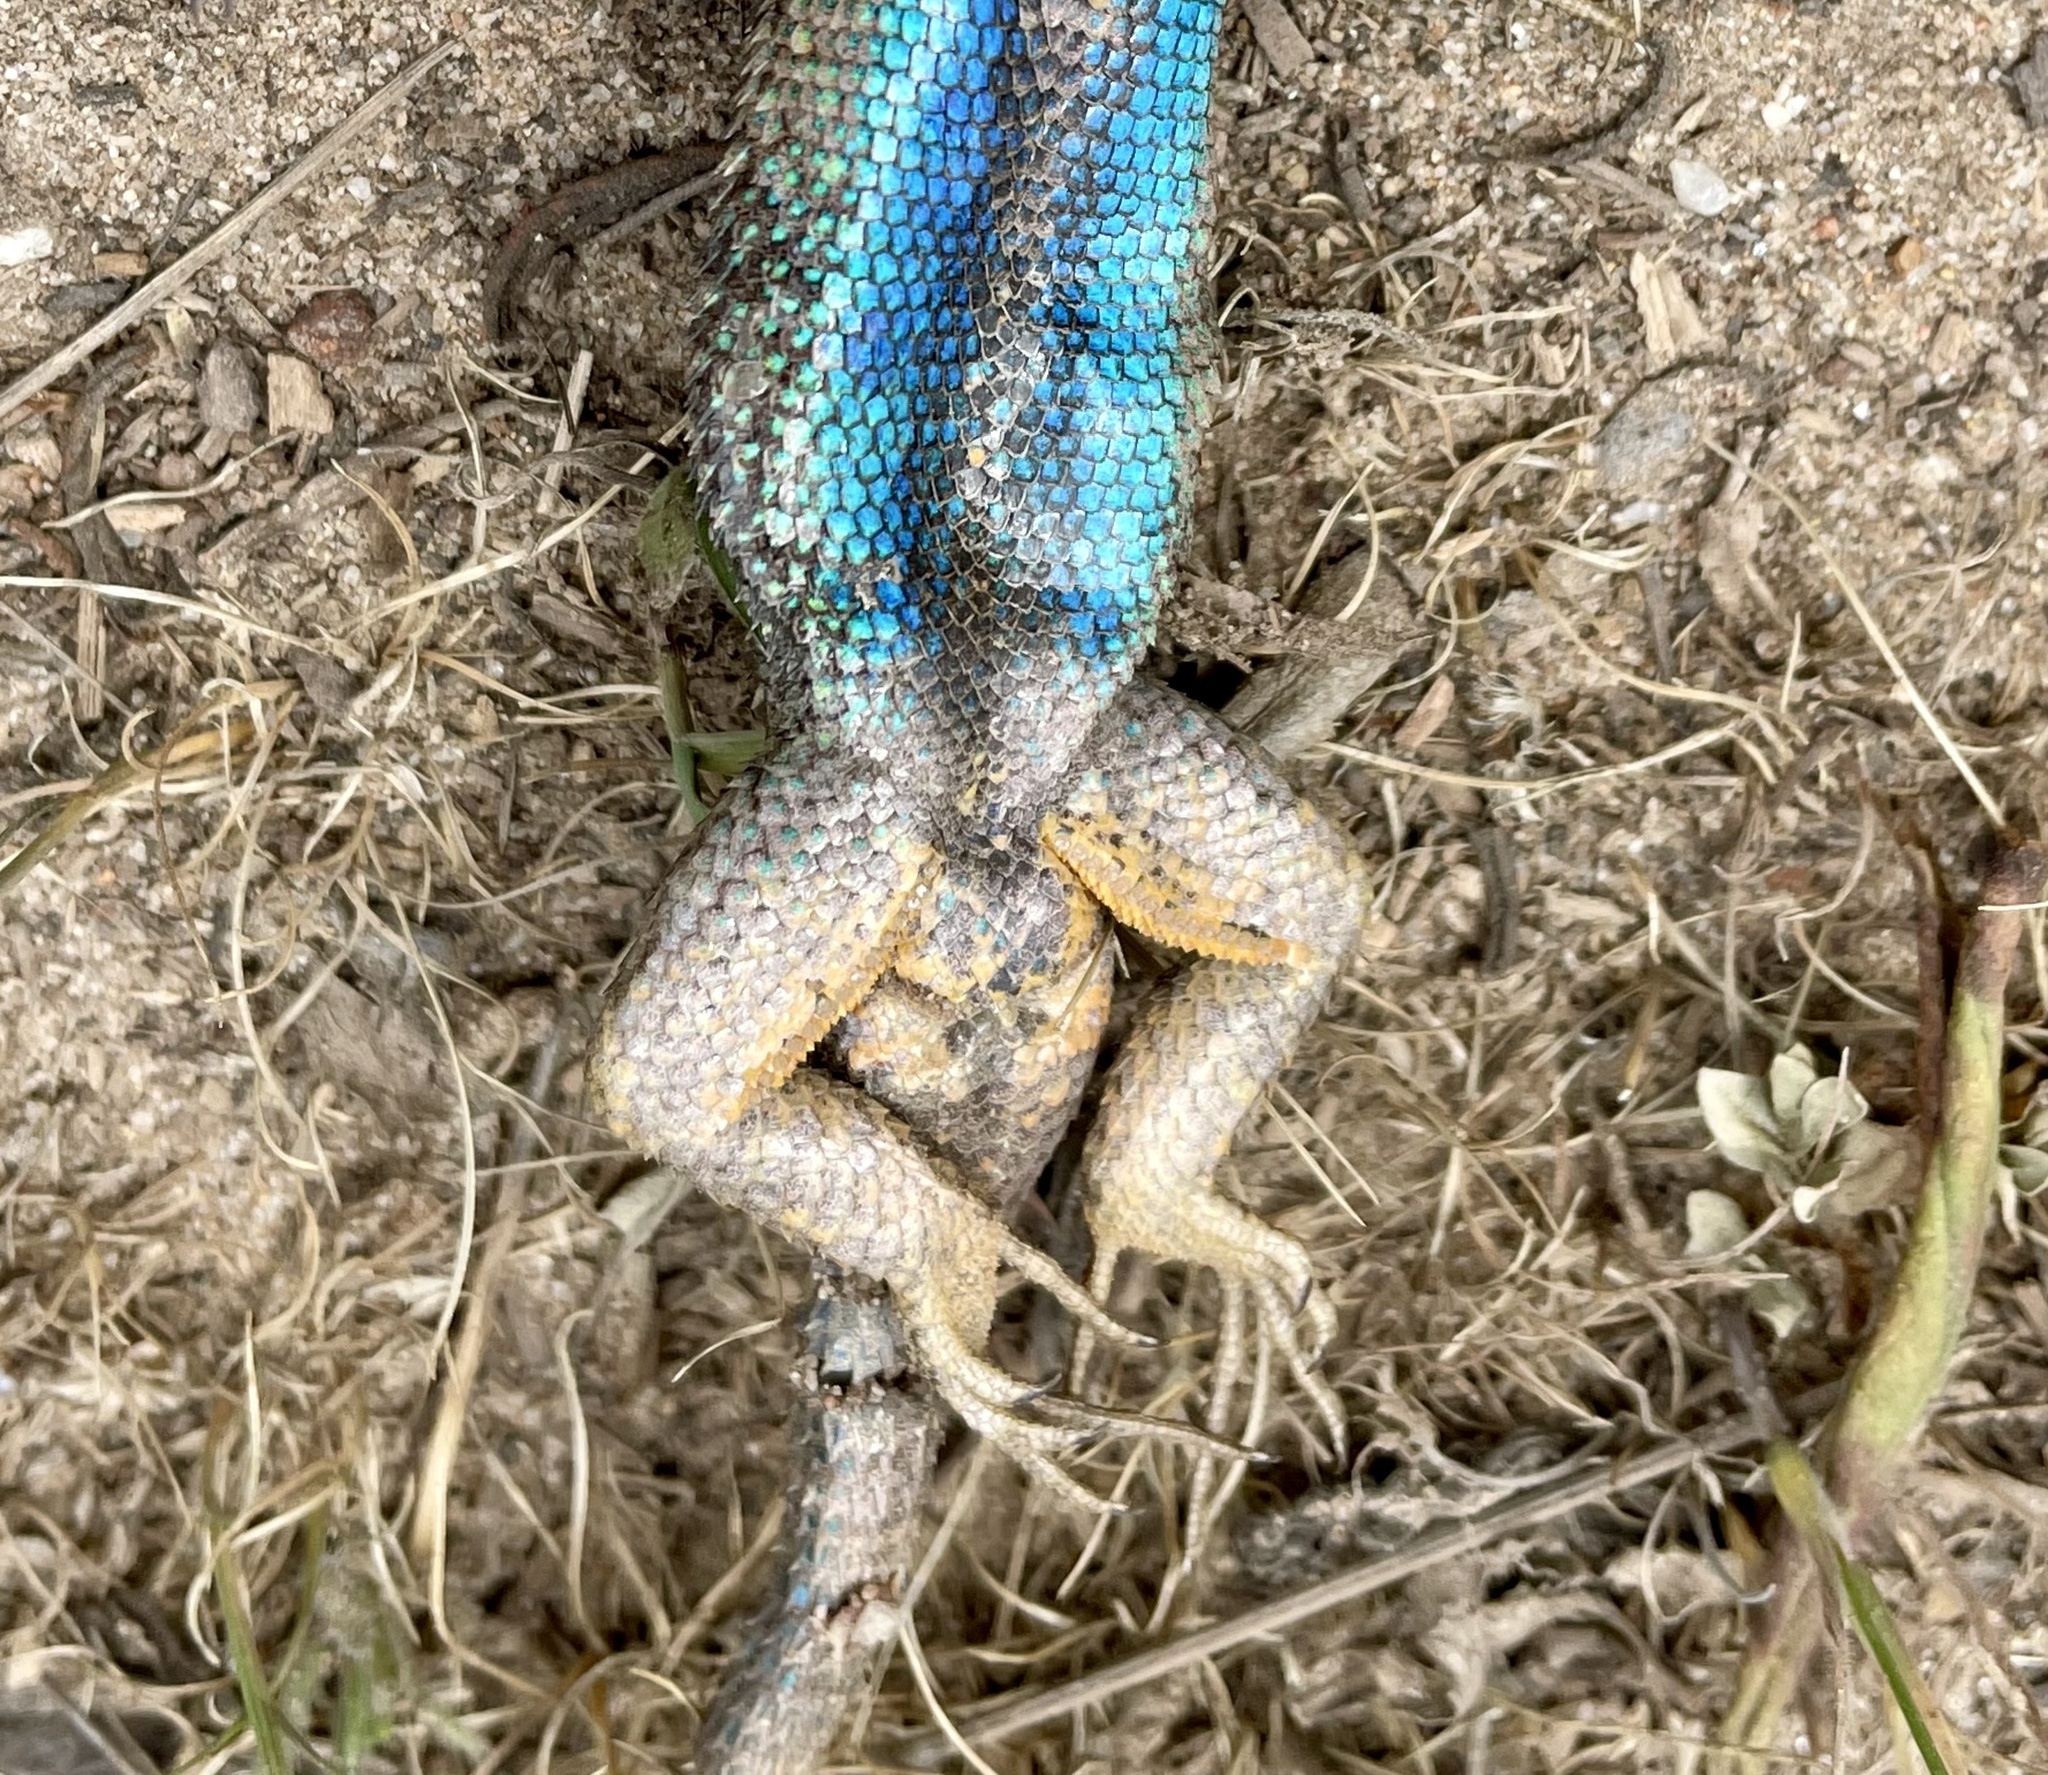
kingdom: Animalia
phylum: Chordata
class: Squamata
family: Phrynosomatidae
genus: Sceloporus
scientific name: Sceloporus occidentalis
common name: Western fence lizard
